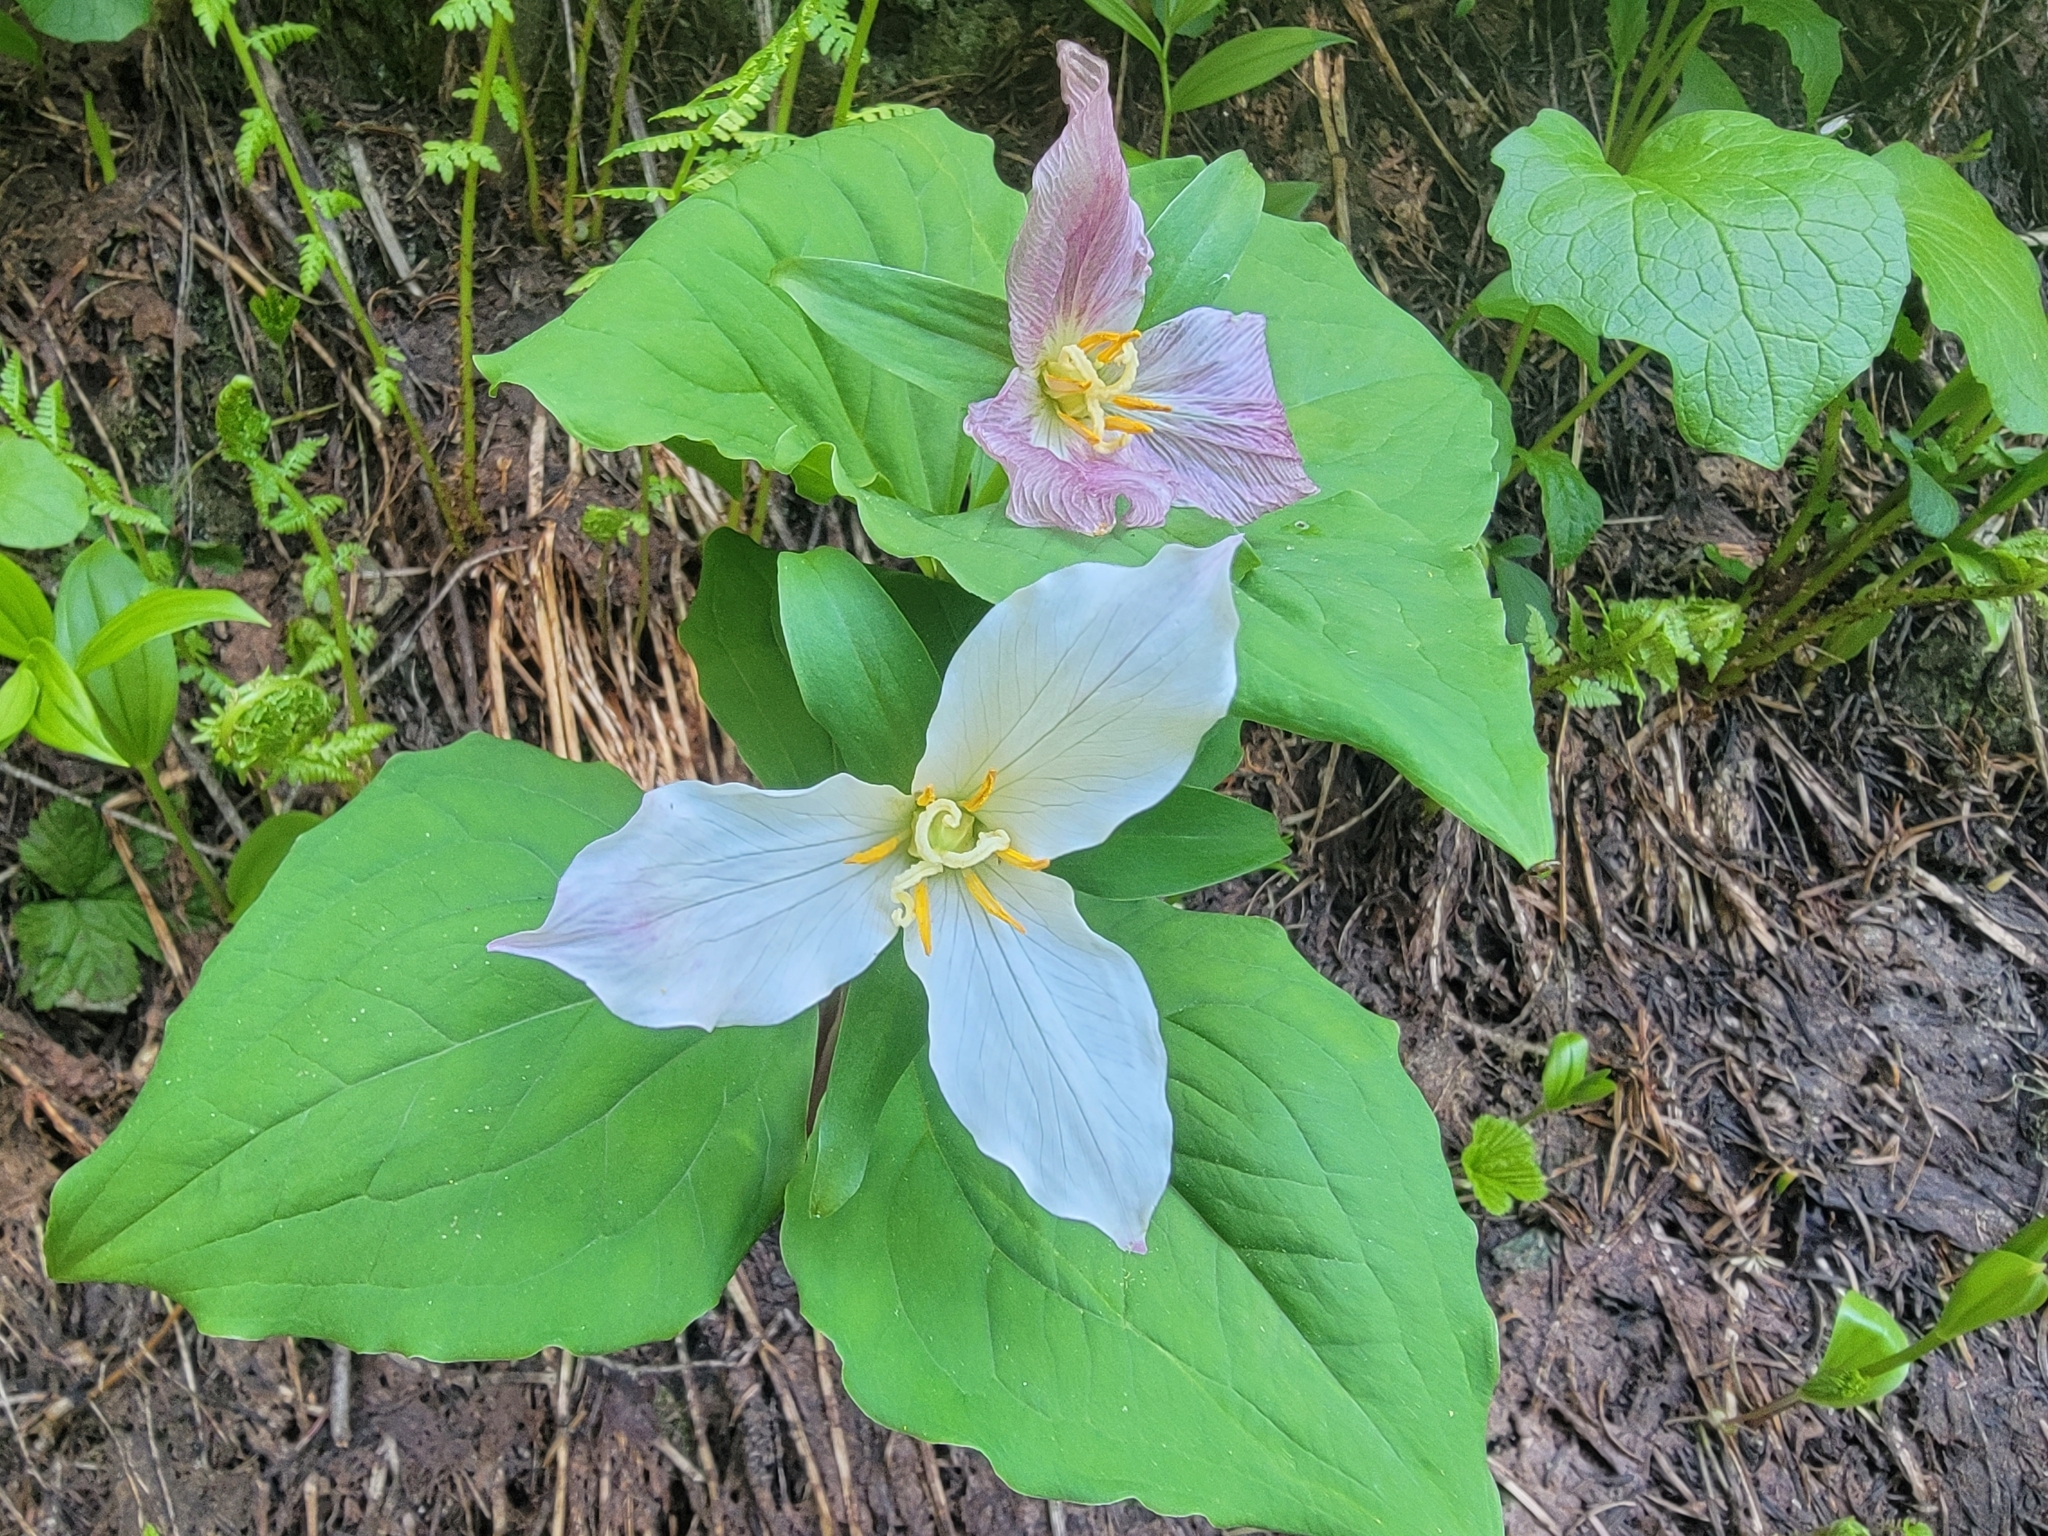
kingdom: Plantae
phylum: Tracheophyta
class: Liliopsida
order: Liliales
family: Melanthiaceae
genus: Trillium
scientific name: Trillium ovatum
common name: Pacific trillium
